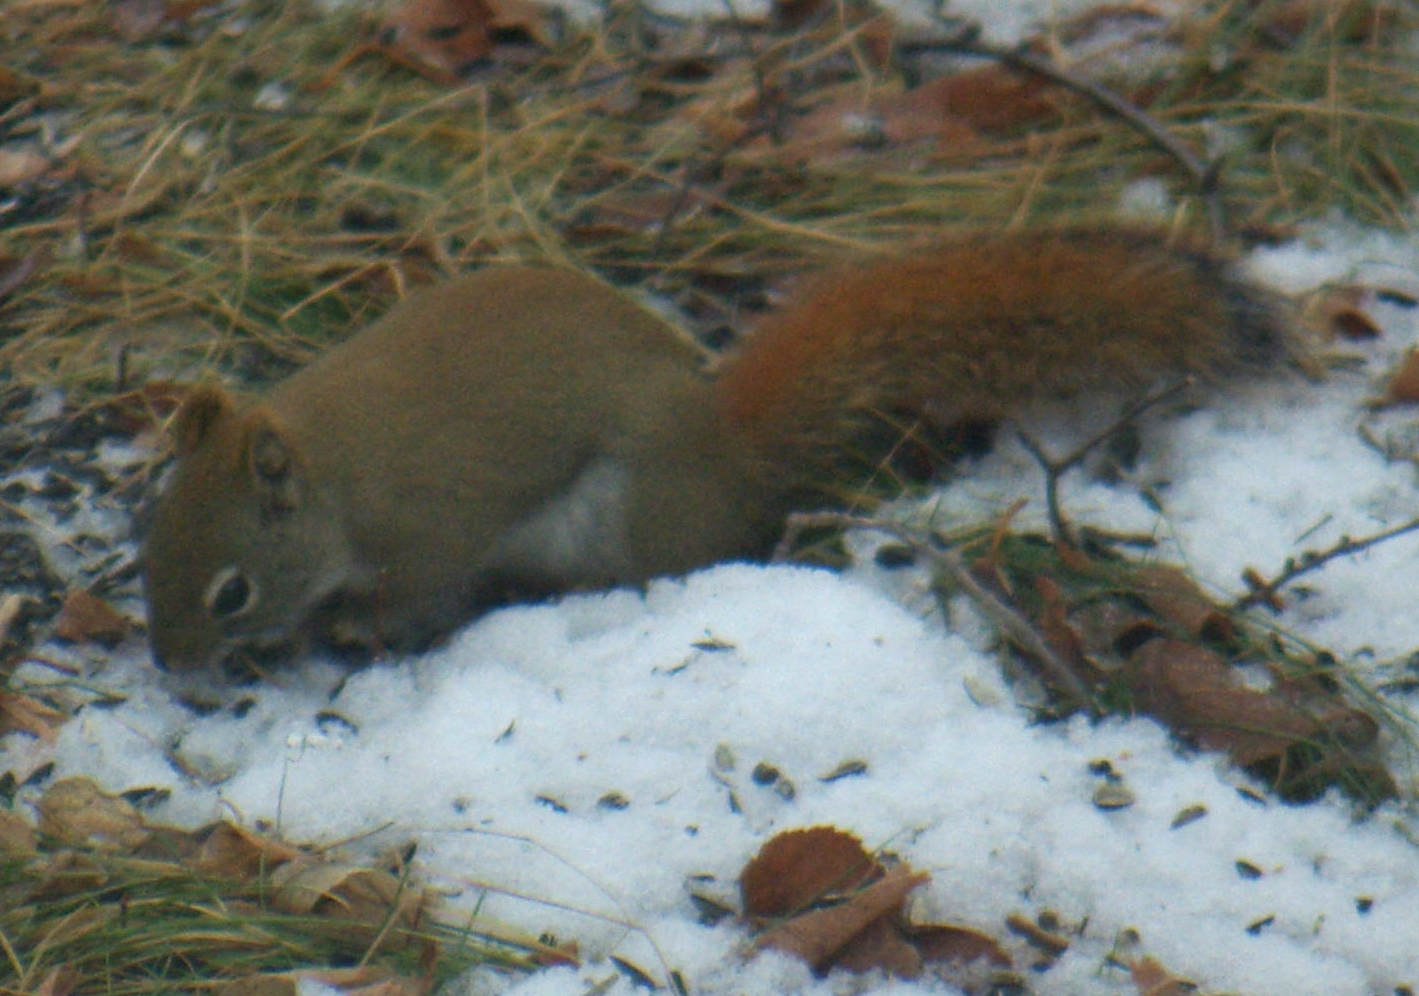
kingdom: Animalia
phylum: Chordata
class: Mammalia
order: Rodentia
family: Sciuridae
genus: Tamiasciurus
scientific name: Tamiasciurus hudsonicus
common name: Red squirrel
